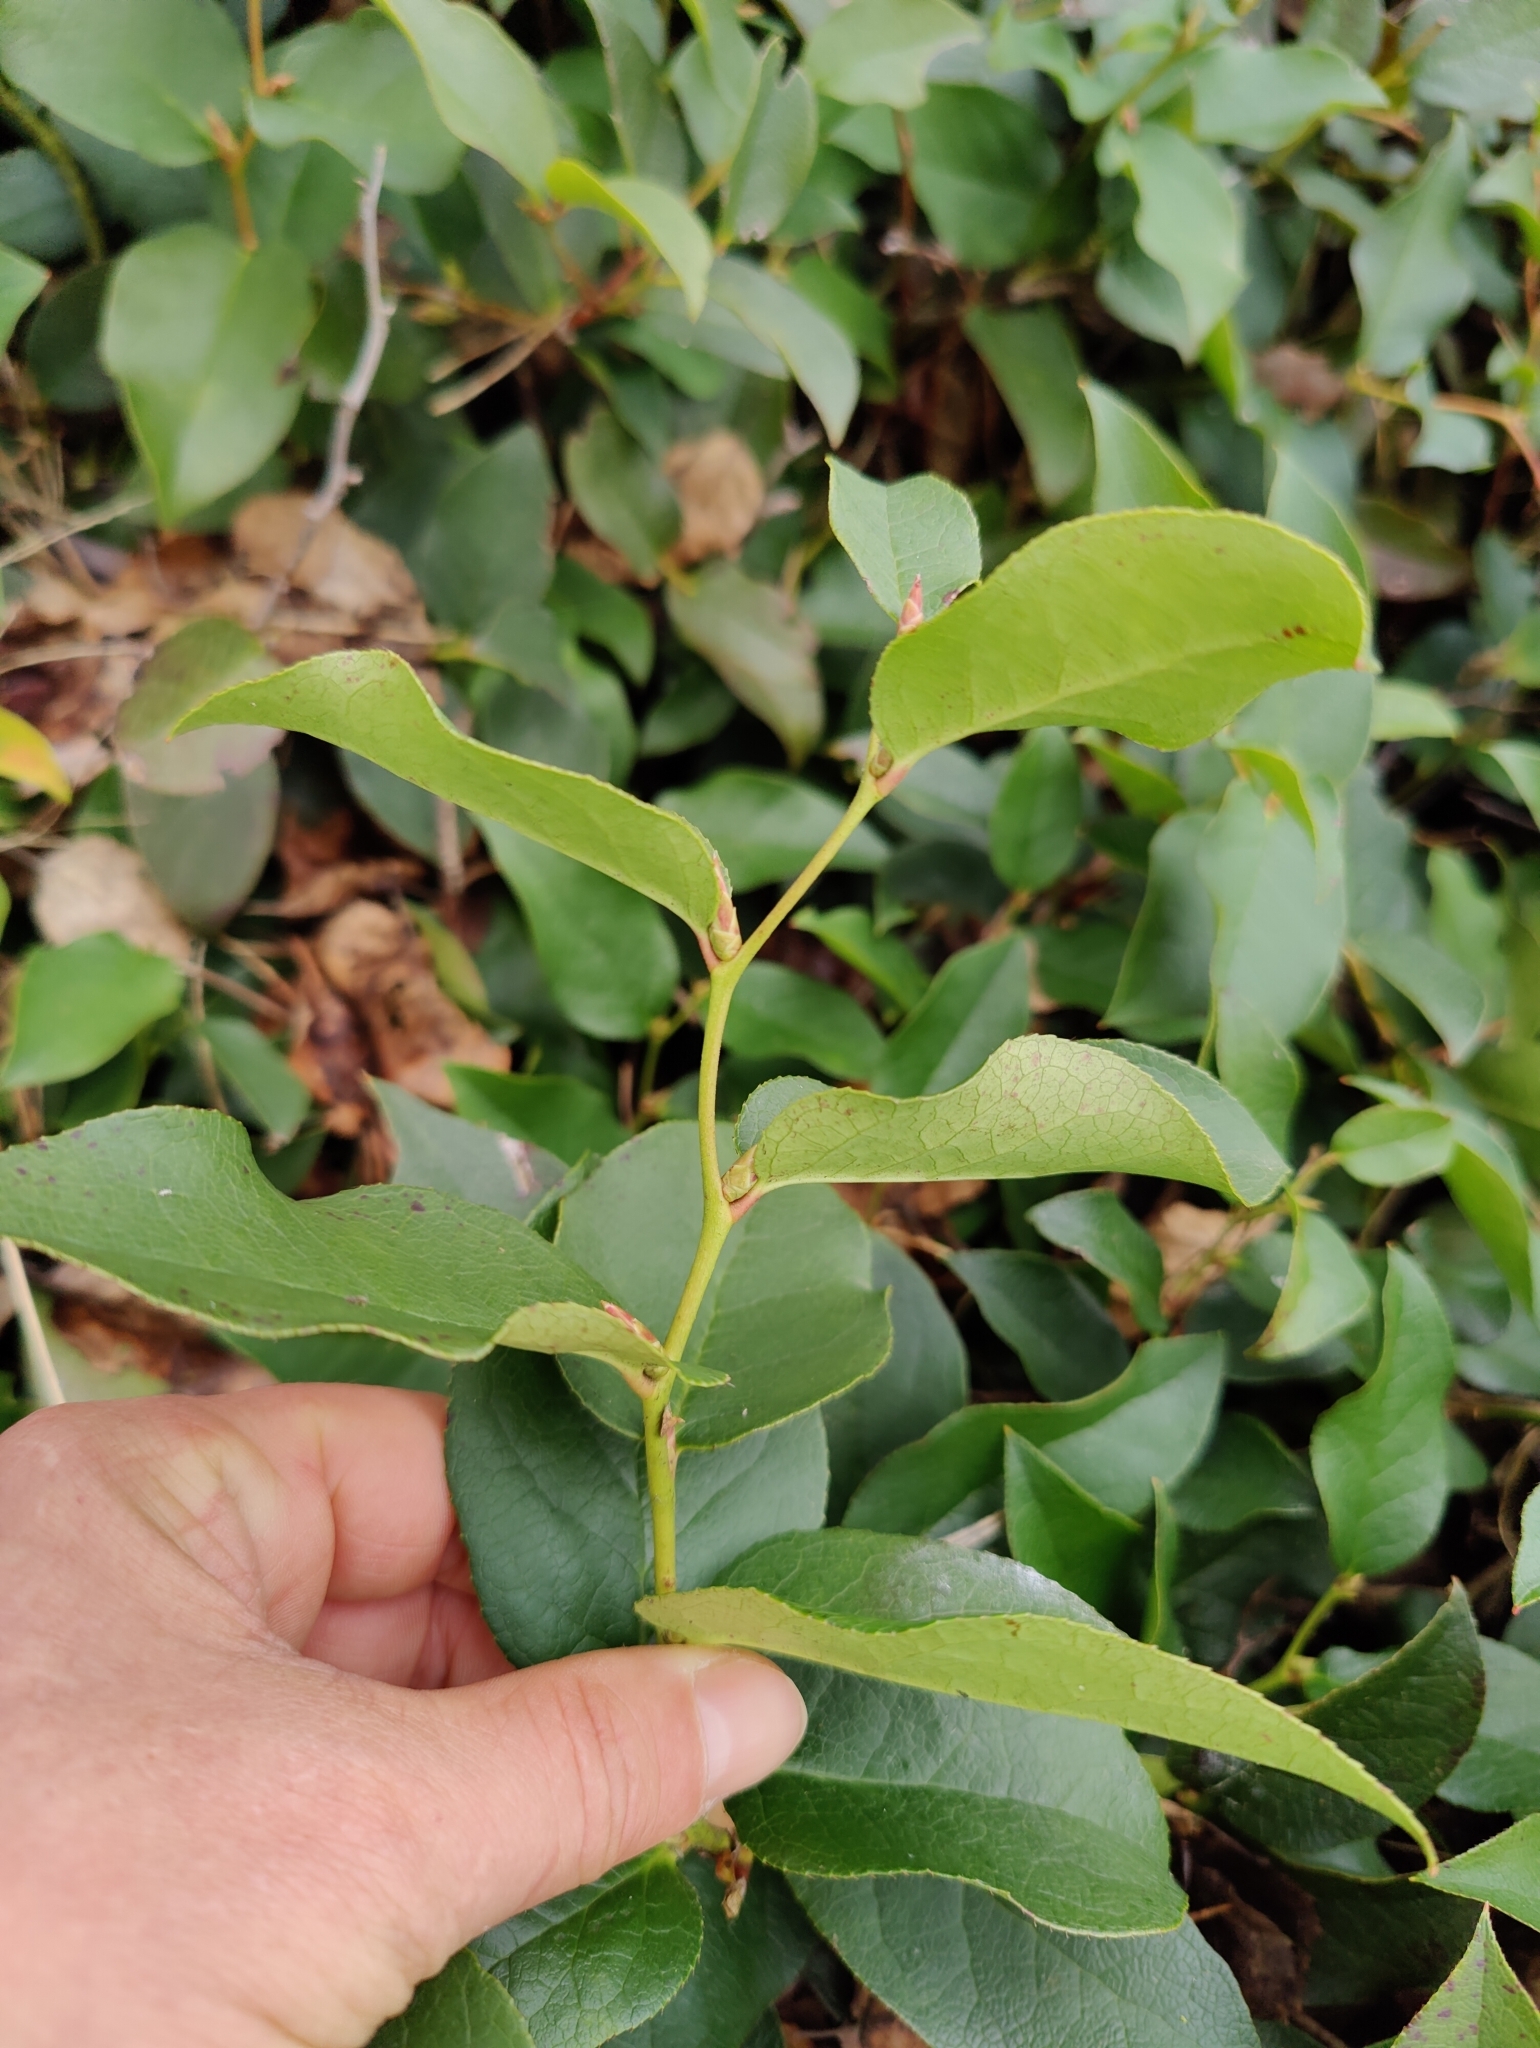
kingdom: Plantae
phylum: Tracheophyta
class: Magnoliopsida
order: Ericales
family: Ericaceae
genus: Gaultheria
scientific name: Gaultheria shallon
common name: Shallon
